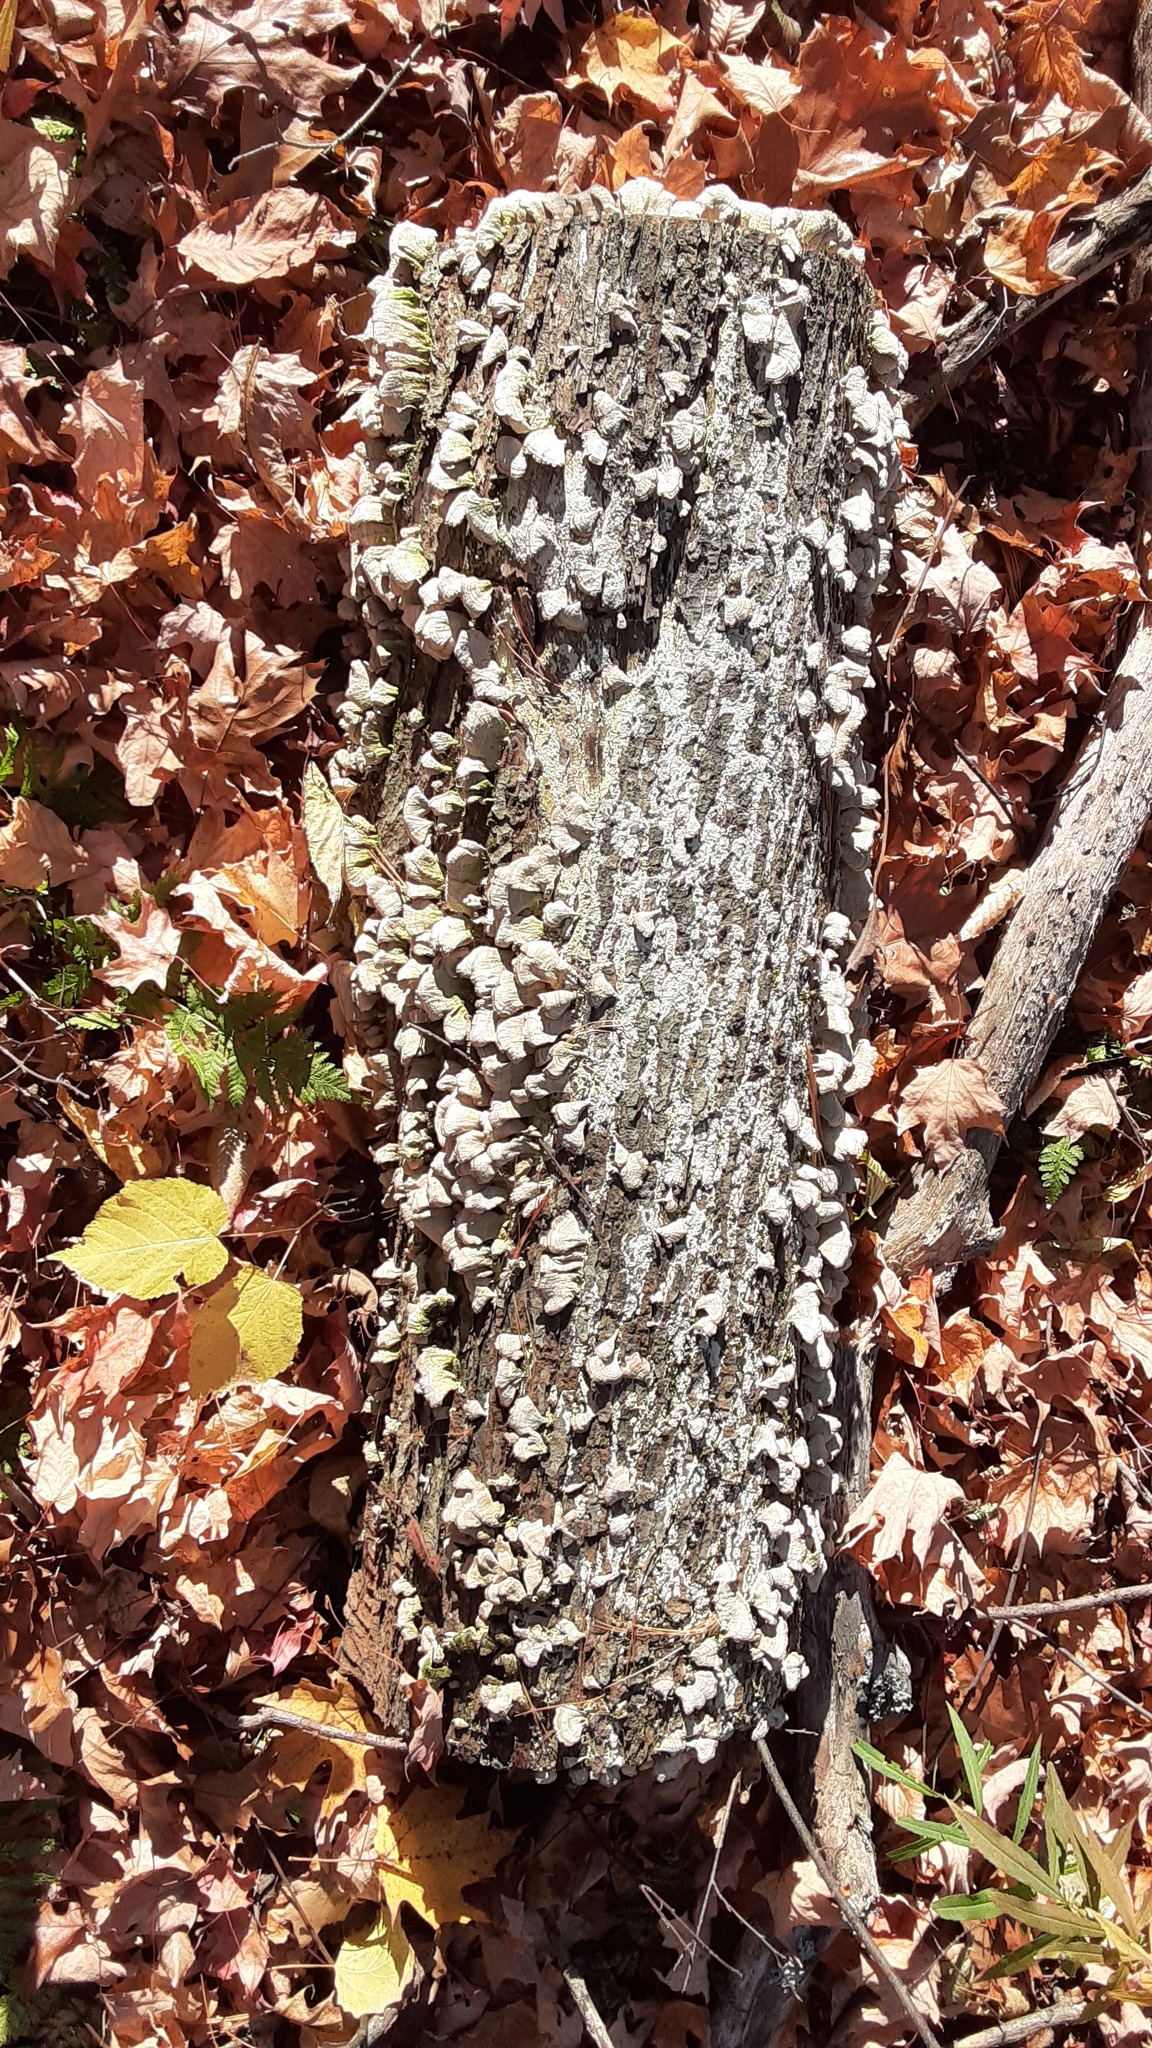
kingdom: Fungi
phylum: Basidiomycota
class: Agaricomycetes
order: Hymenochaetales
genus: Trichaptum
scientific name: Trichaptum biforme
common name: Violet-toothed polypore
